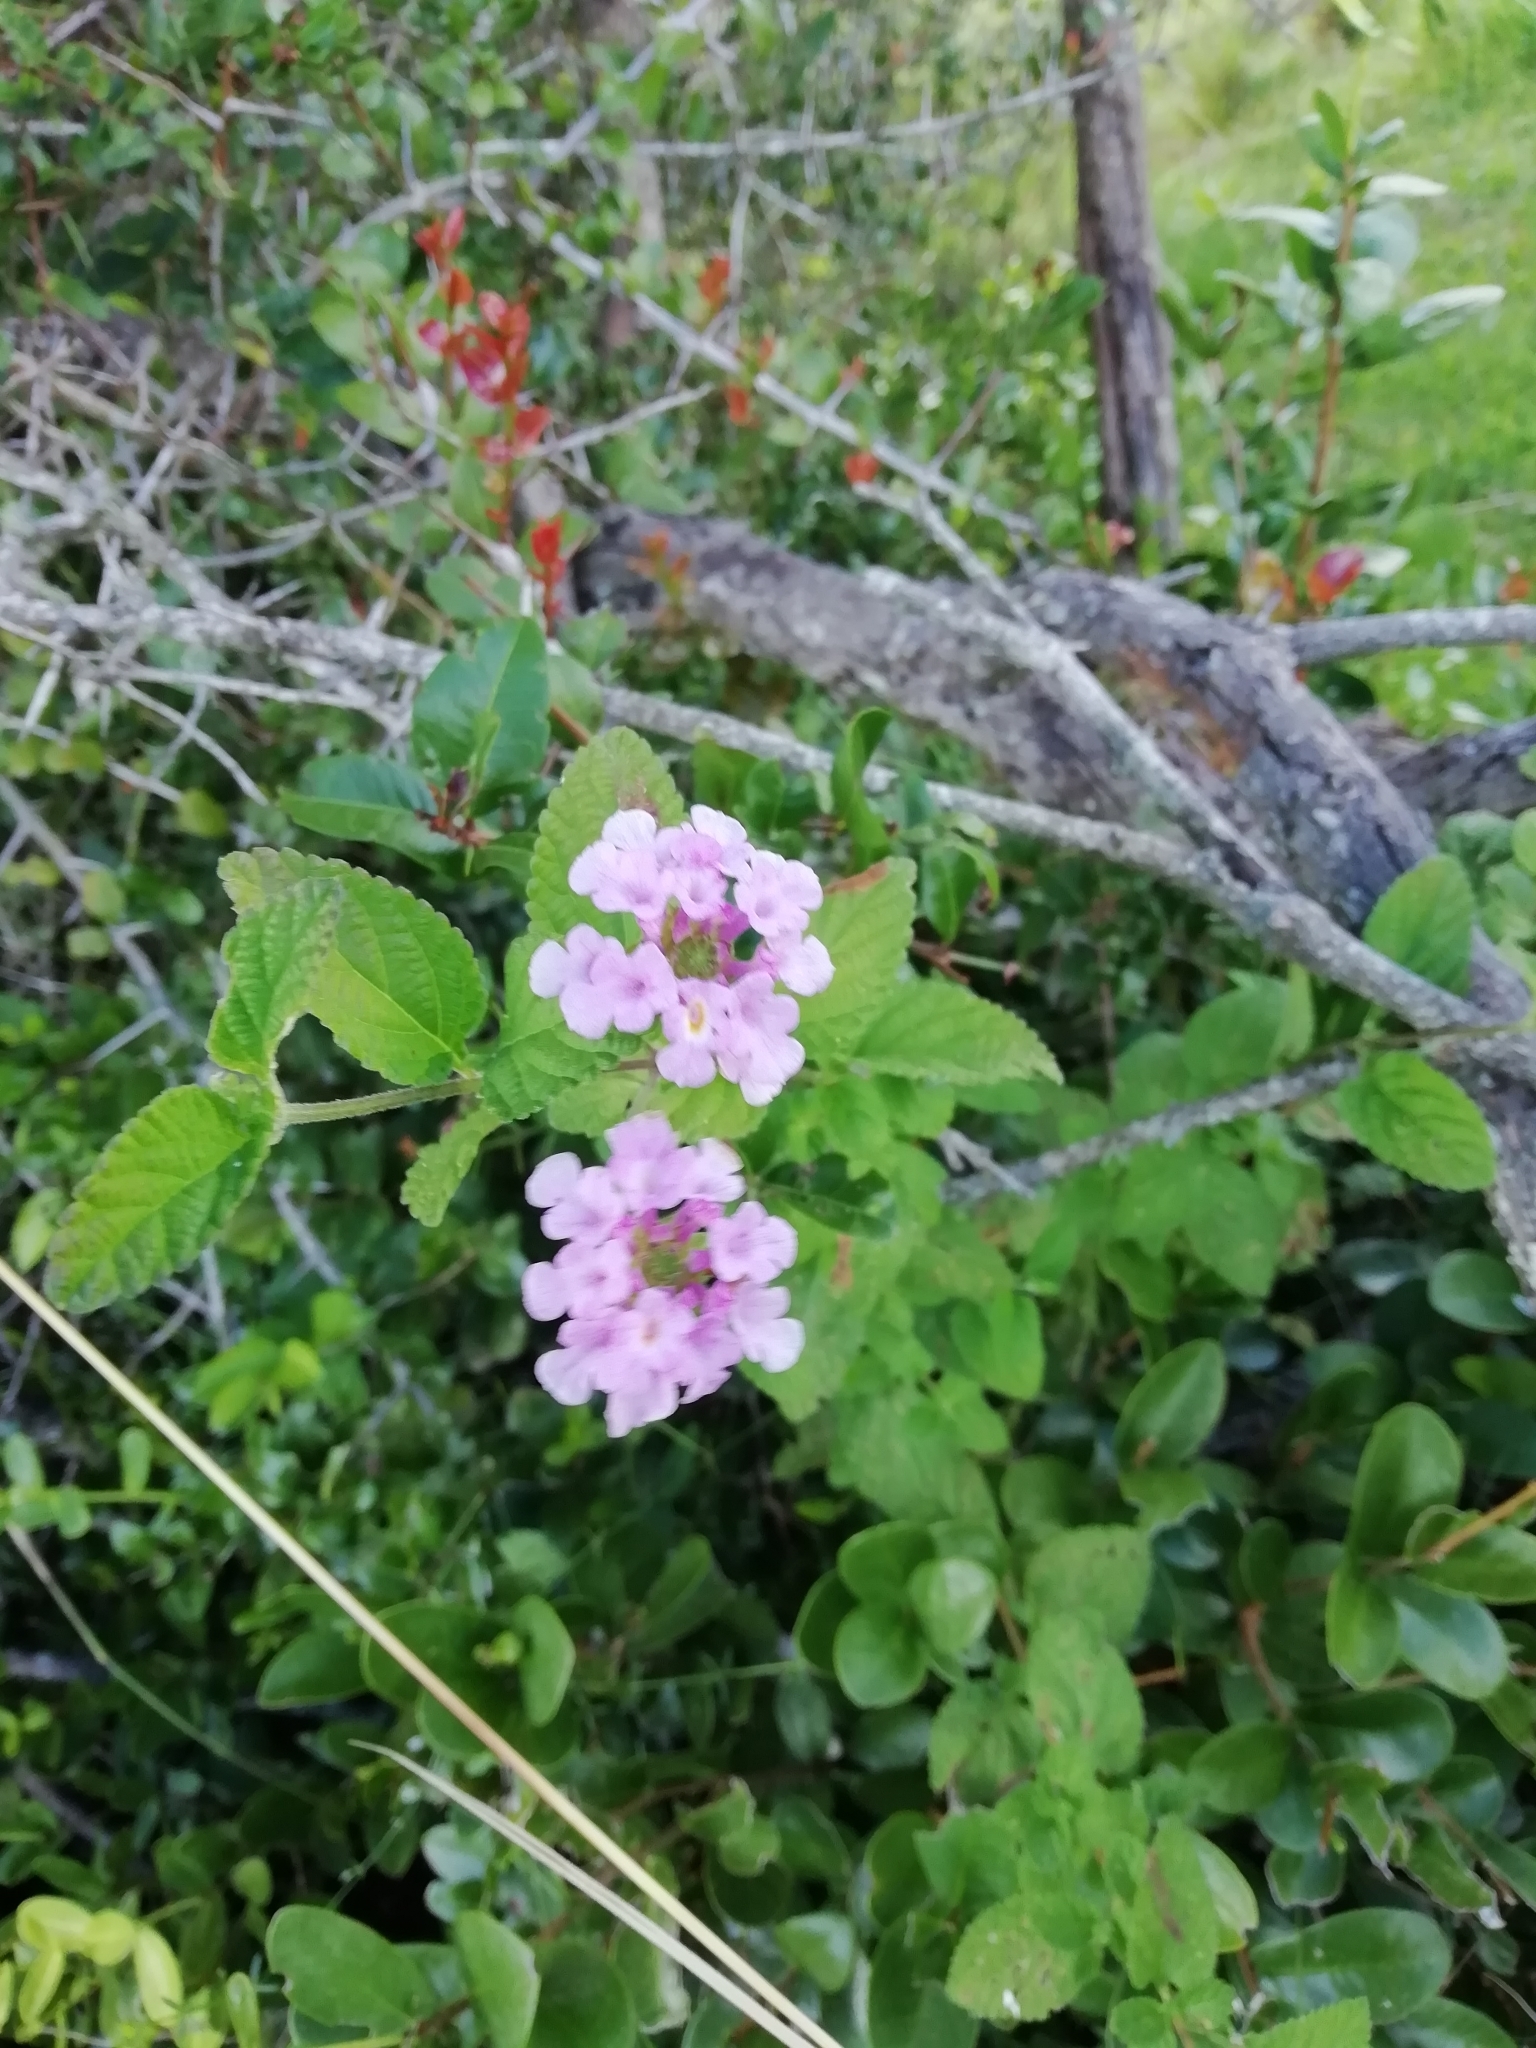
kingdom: Plantae
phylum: Tracheophyta
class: Magnoliopsida
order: Lamiales
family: Verbenaceae
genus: Lantana
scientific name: Lantana montevidensis
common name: Trailing shrubverbena
